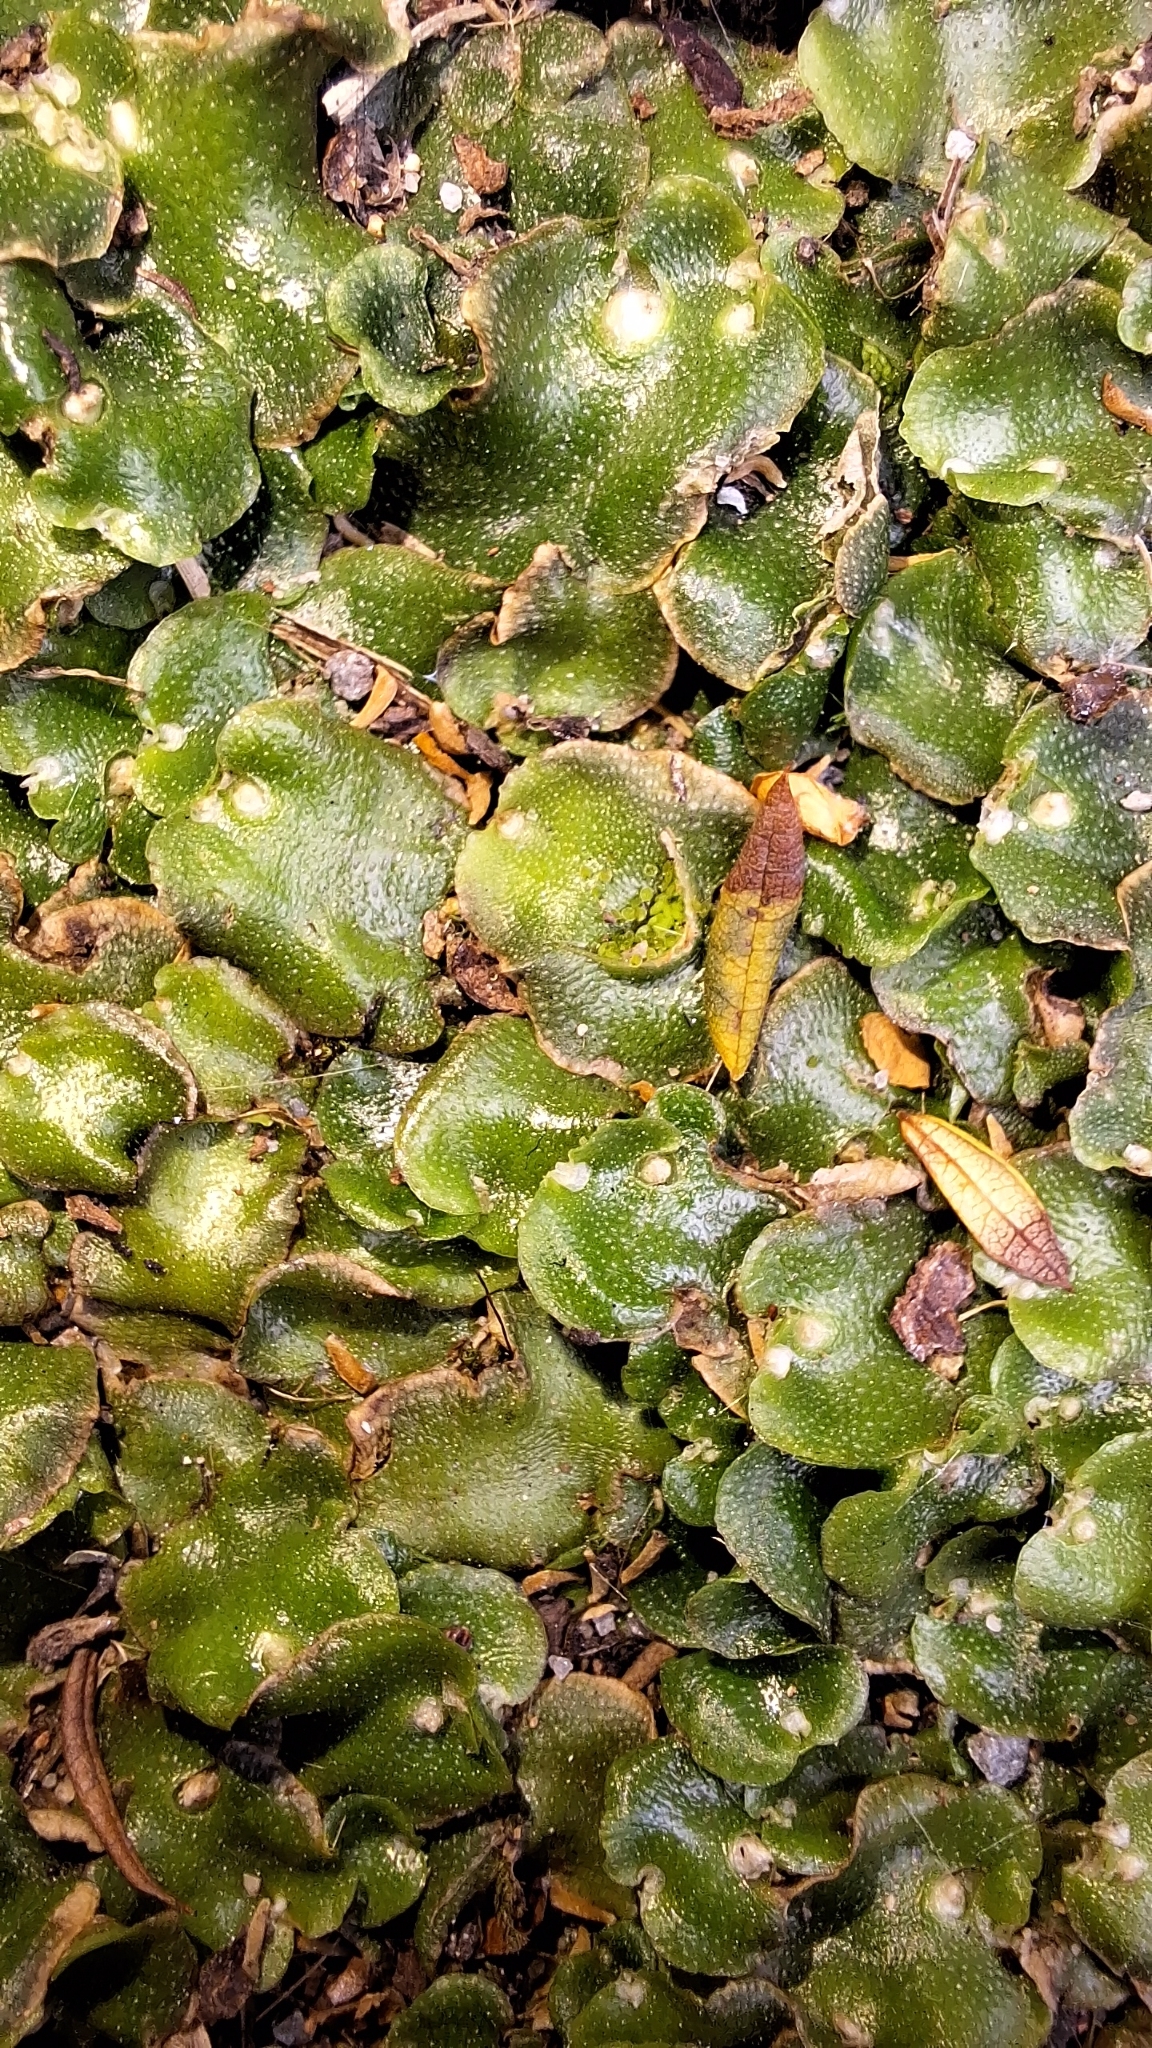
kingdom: Plantae
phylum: Marchantiophyta
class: Marchantiopsida
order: Lunulariales
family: Lunulariaceae
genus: Lunularia
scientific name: Lunularia cruciata
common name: Crescent-cup liverwort
